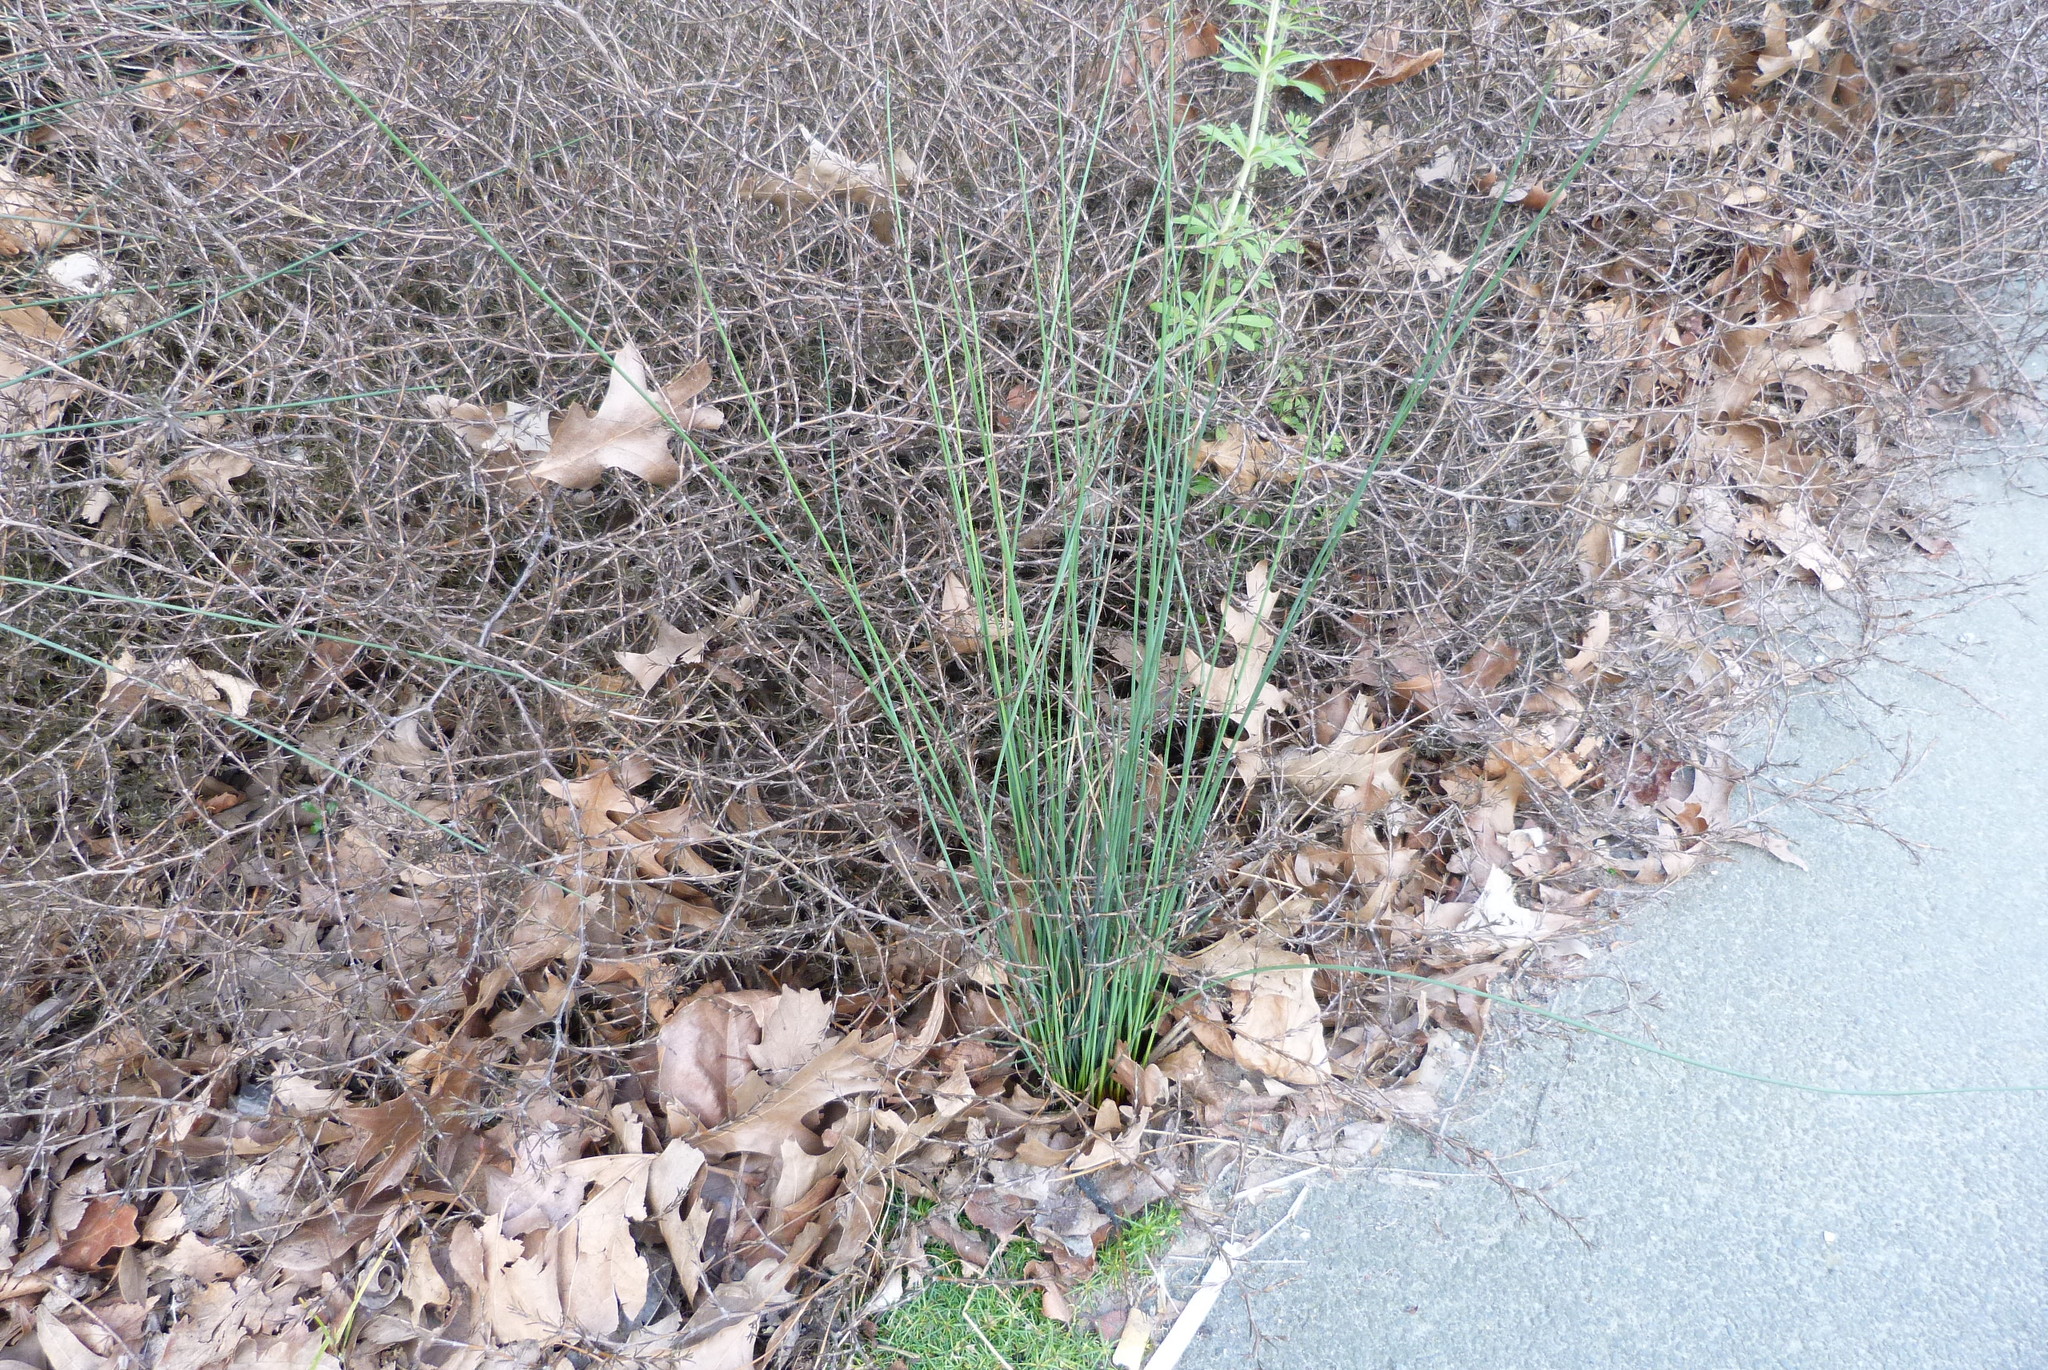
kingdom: Plantae
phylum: Tracheophyta
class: Liliopsida
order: Poales
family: Juncaceae
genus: Juncus
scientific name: Juncus sarophorus
